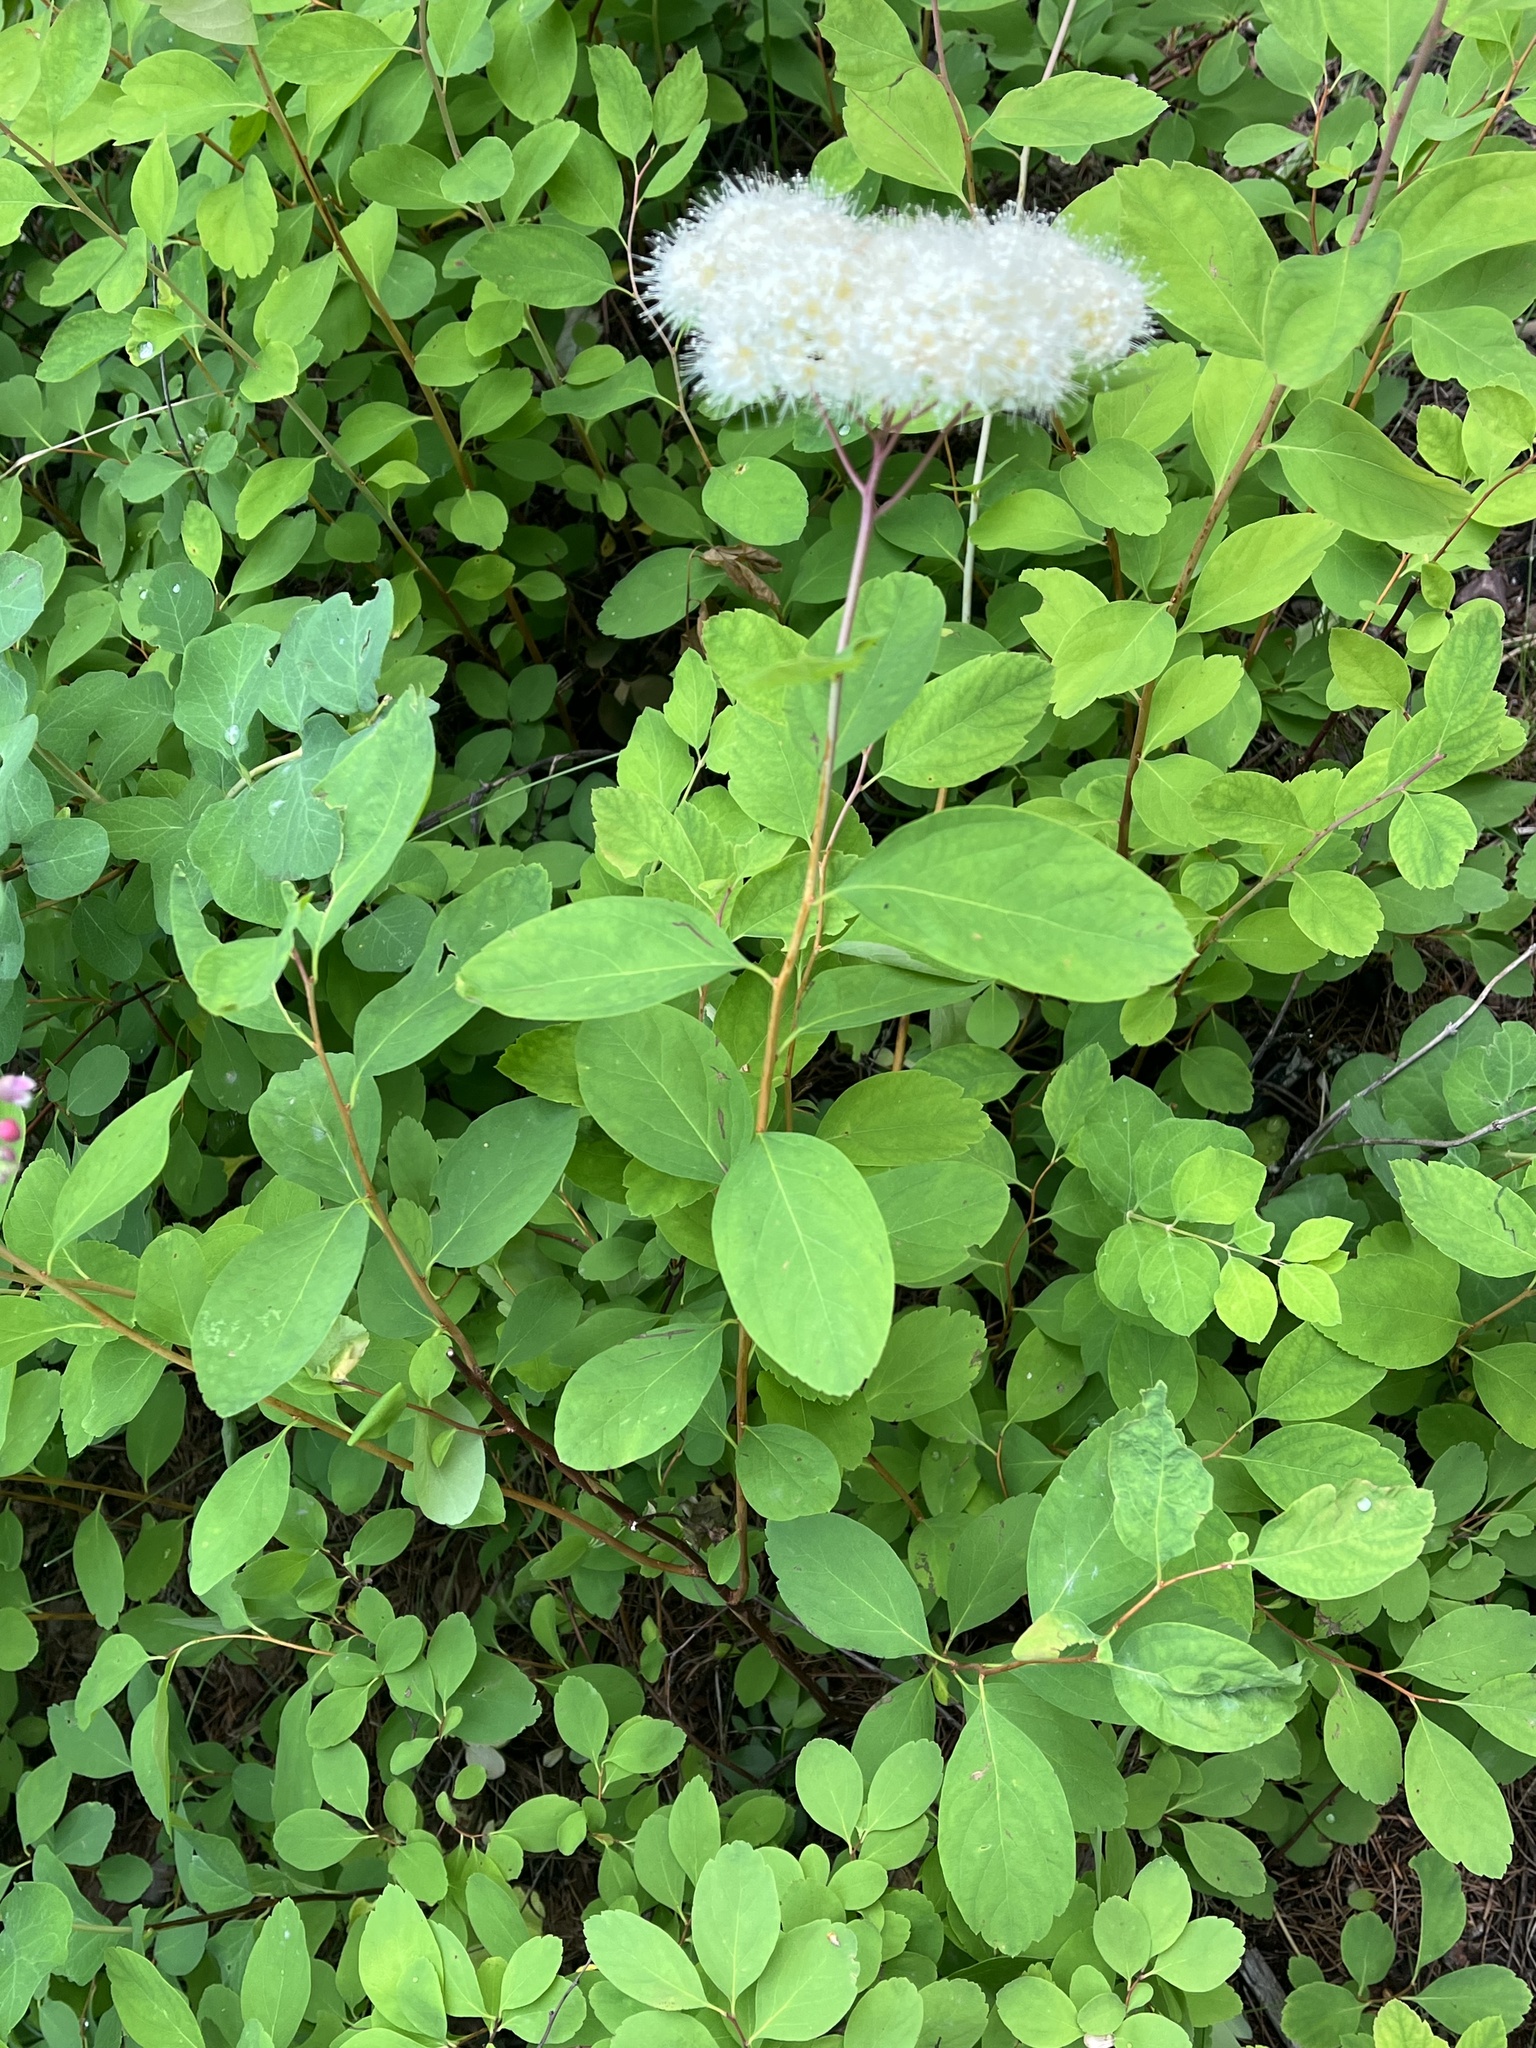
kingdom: Plantae
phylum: Tracheophyta
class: Magnoliopsida
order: Rosales
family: Rosaceae
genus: Spiraea
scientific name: Spiraea lucida
